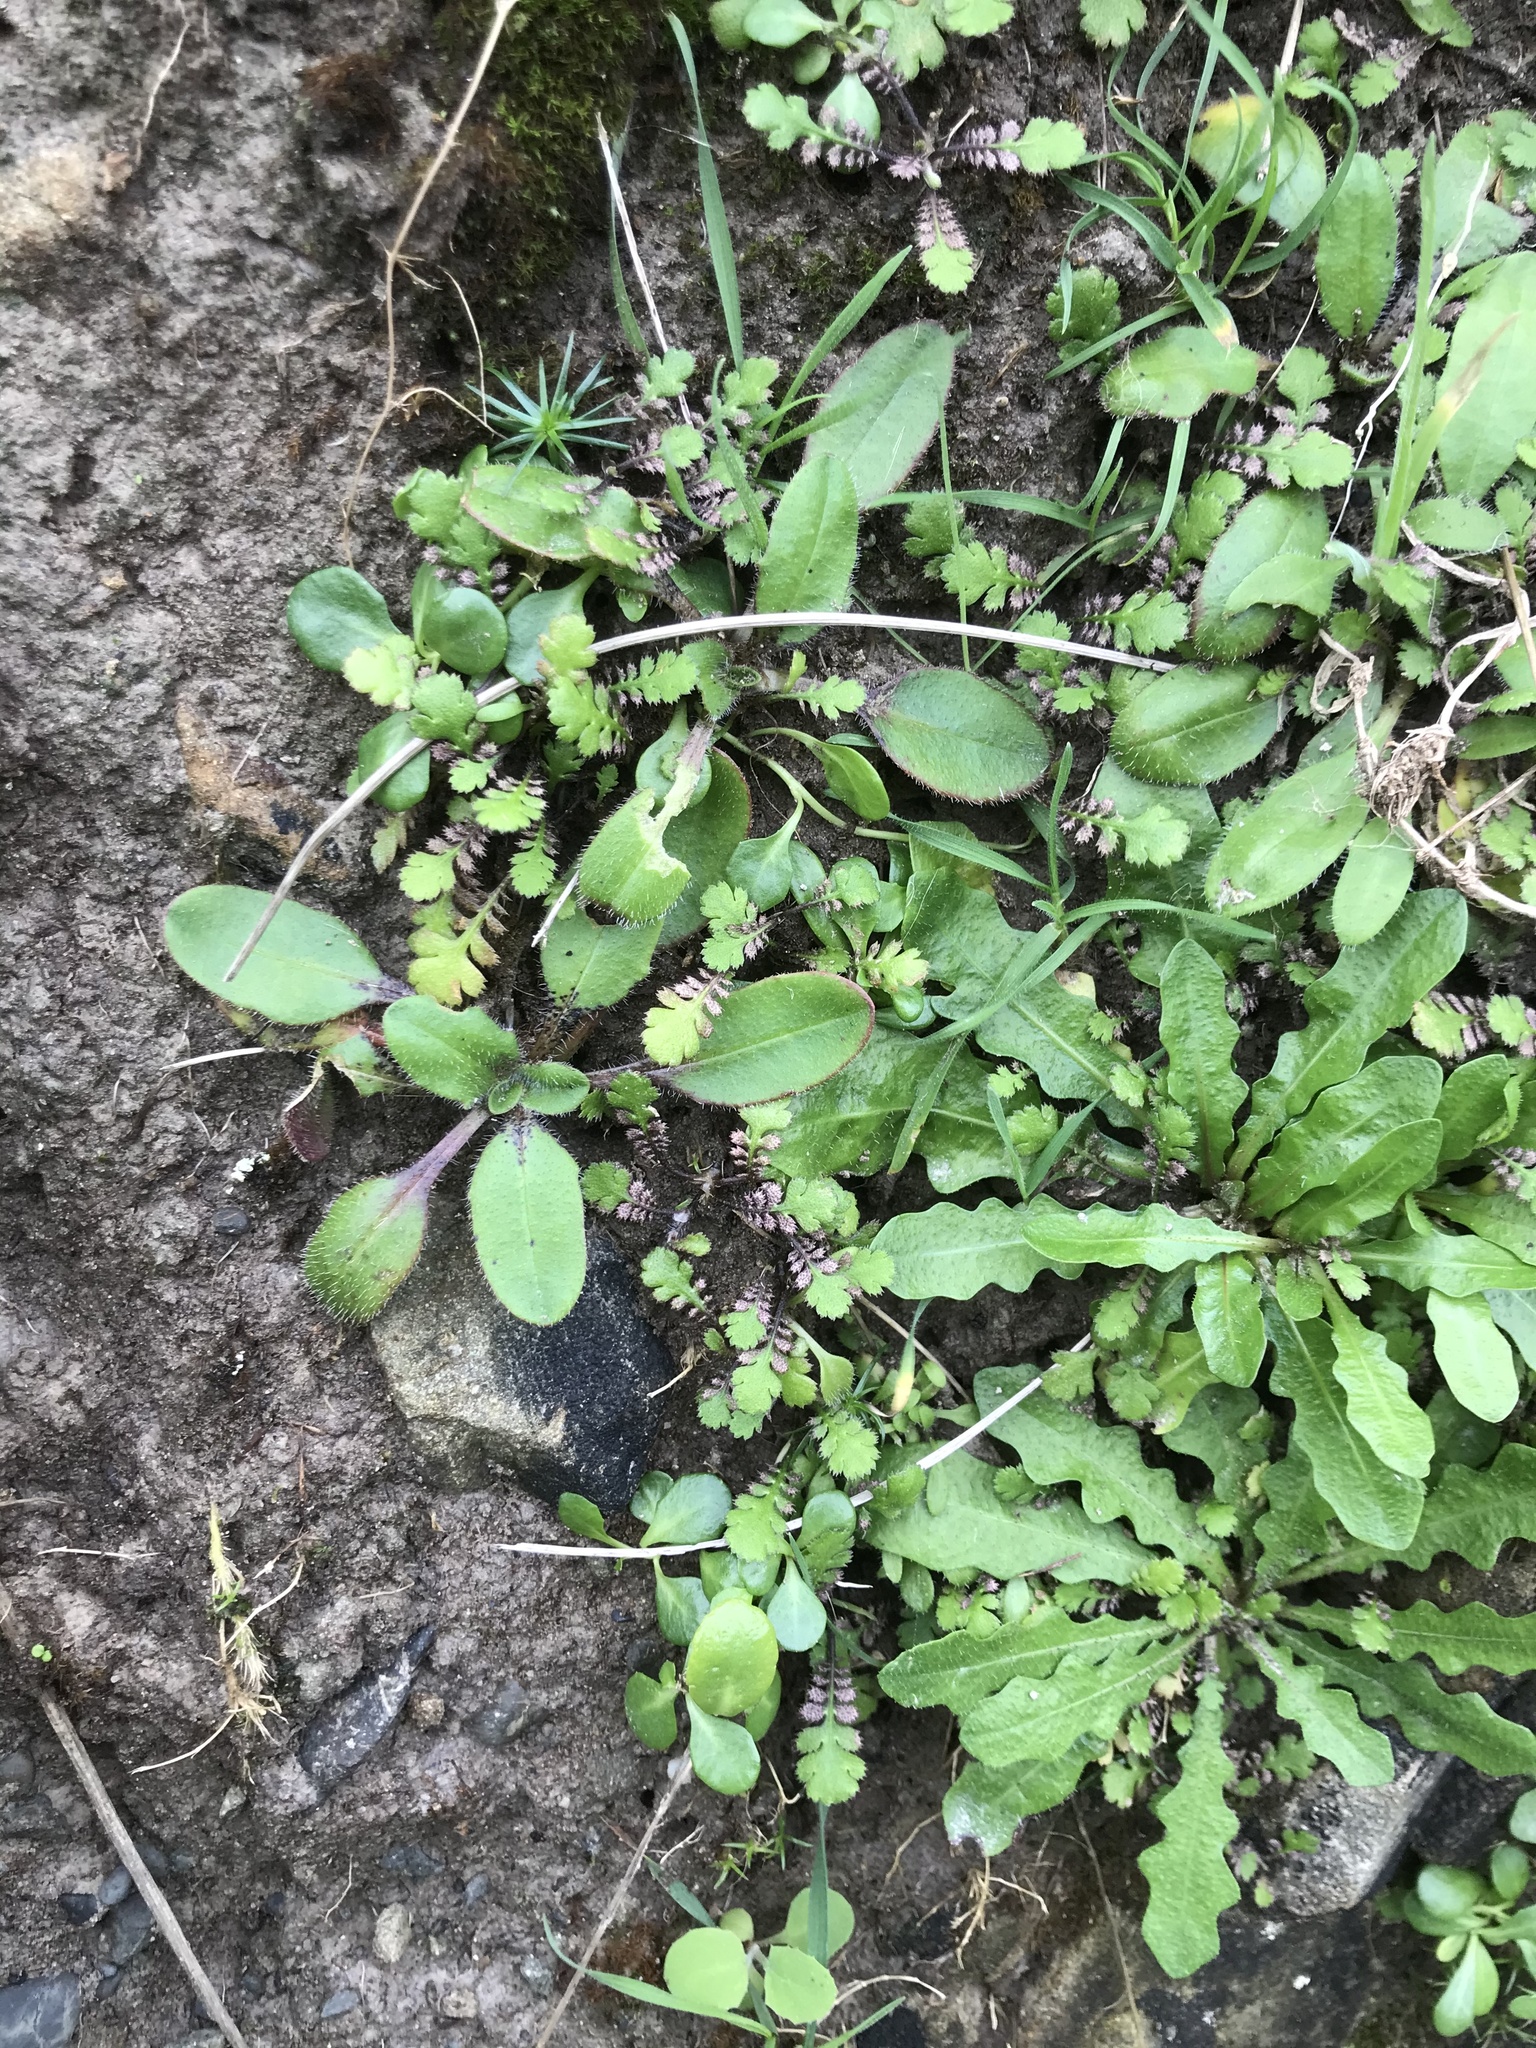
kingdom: Plantae
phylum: Tracheophyta
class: Magnoliopsida
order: Lamiales
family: Plantaginaceae
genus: Plantago
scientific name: Plantago raoulii
